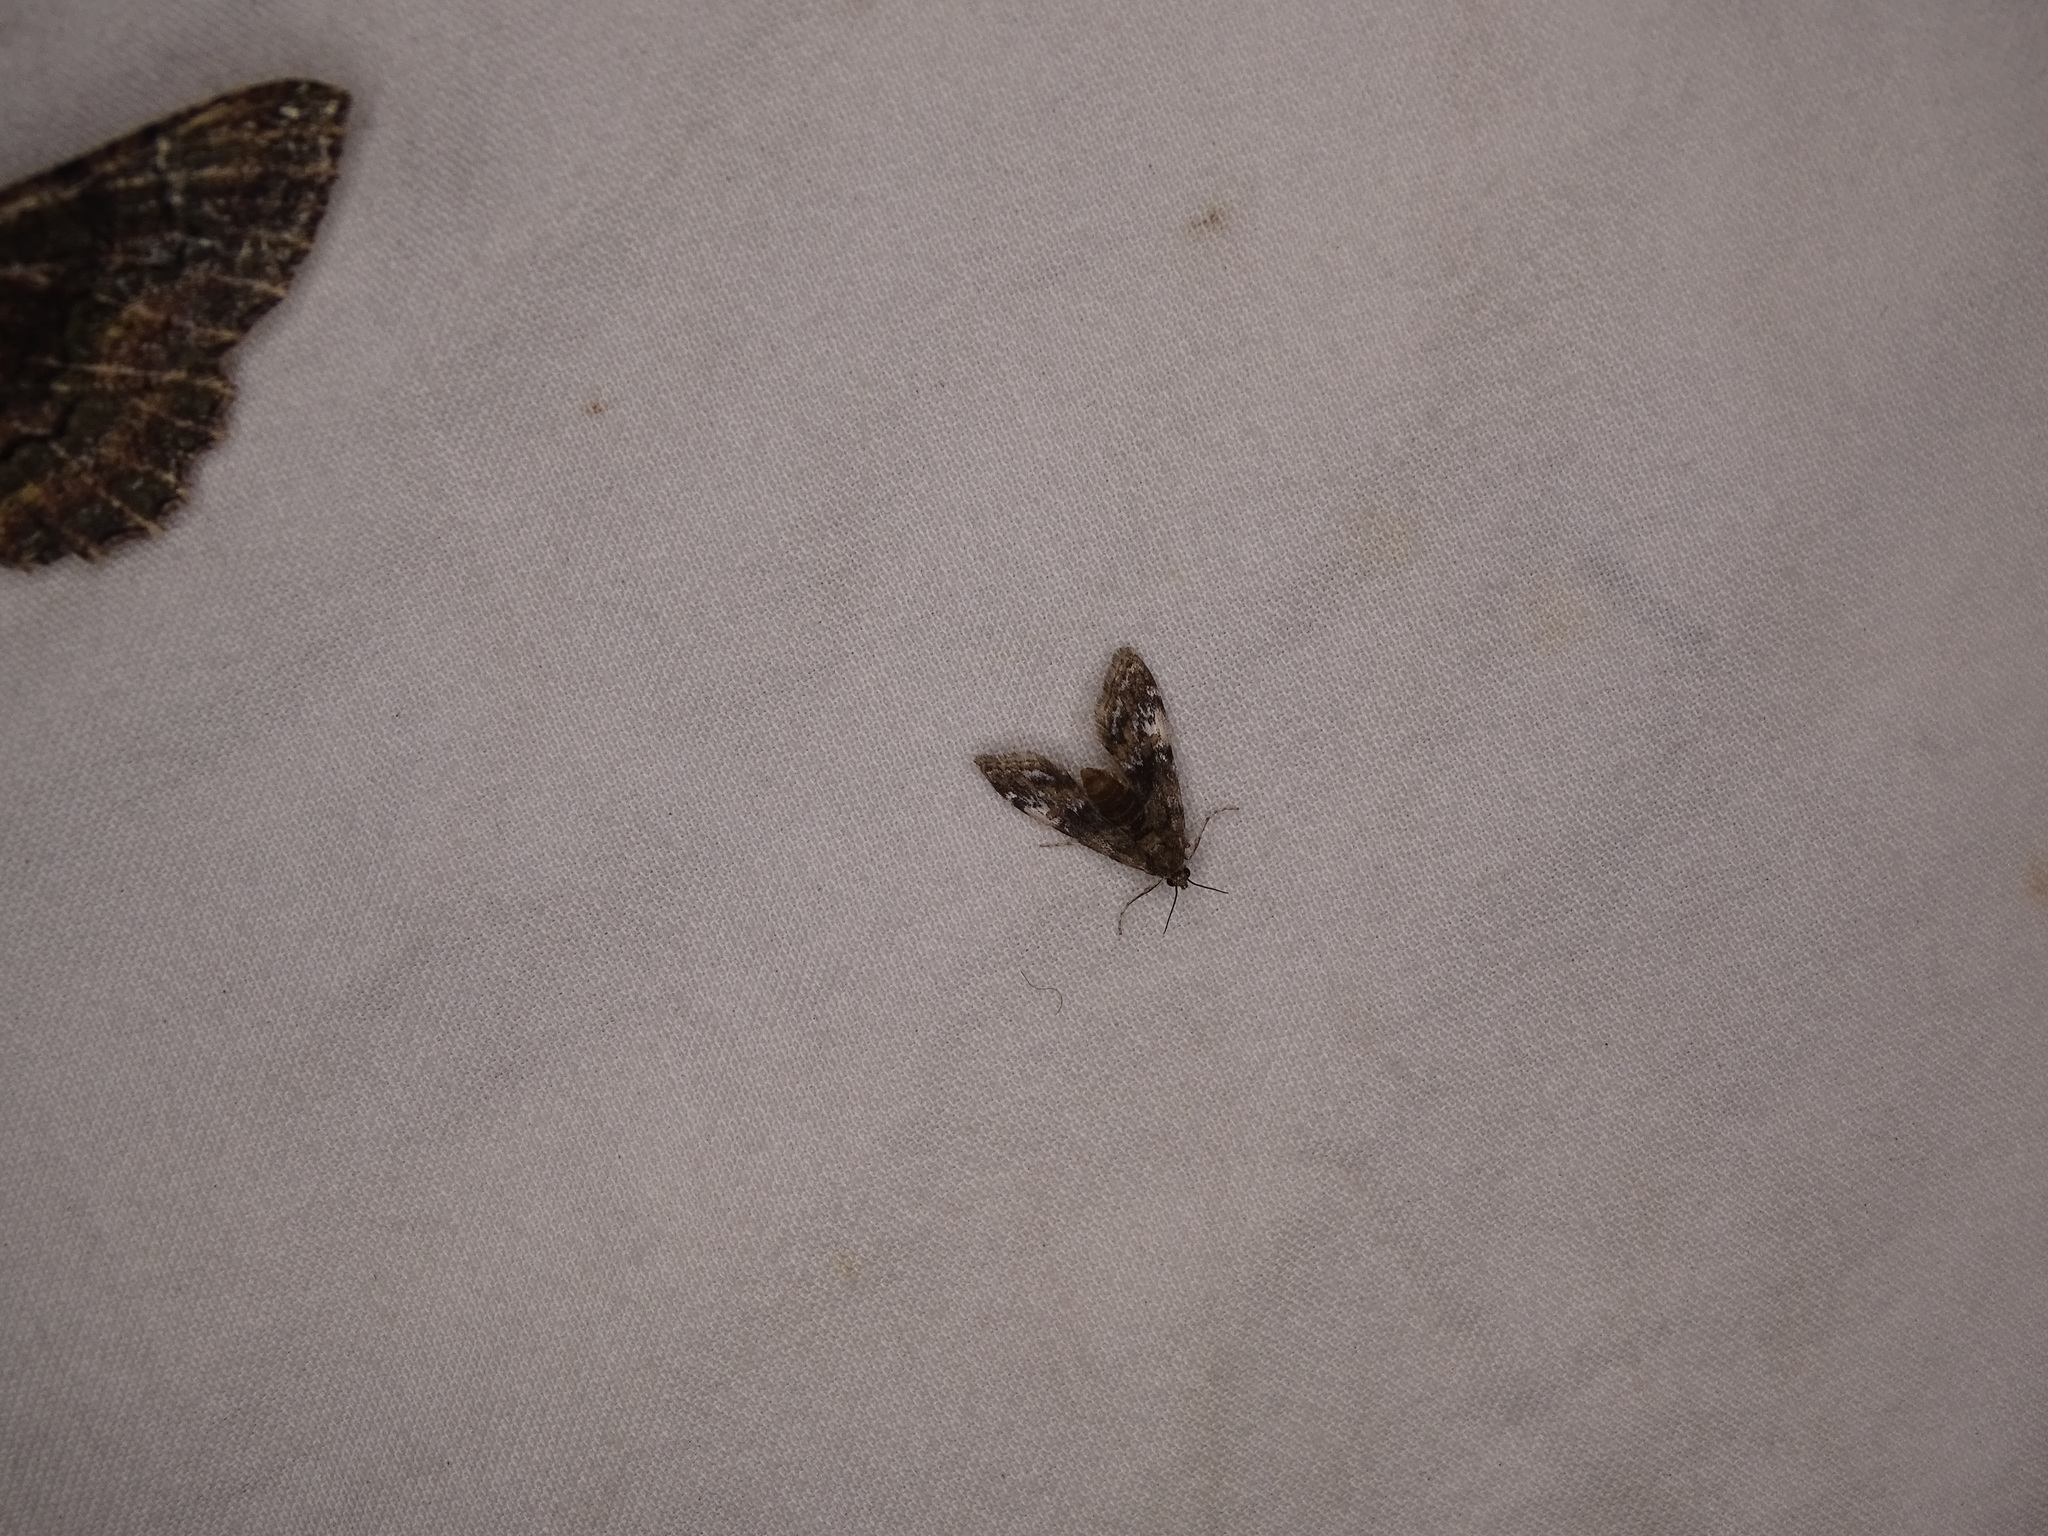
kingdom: Animalia
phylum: Arthropoda
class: Insecta
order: Lepidoptera
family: Crambidae
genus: Elophila
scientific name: Elophila obliteralis
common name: Waterlily leafcutter moth
